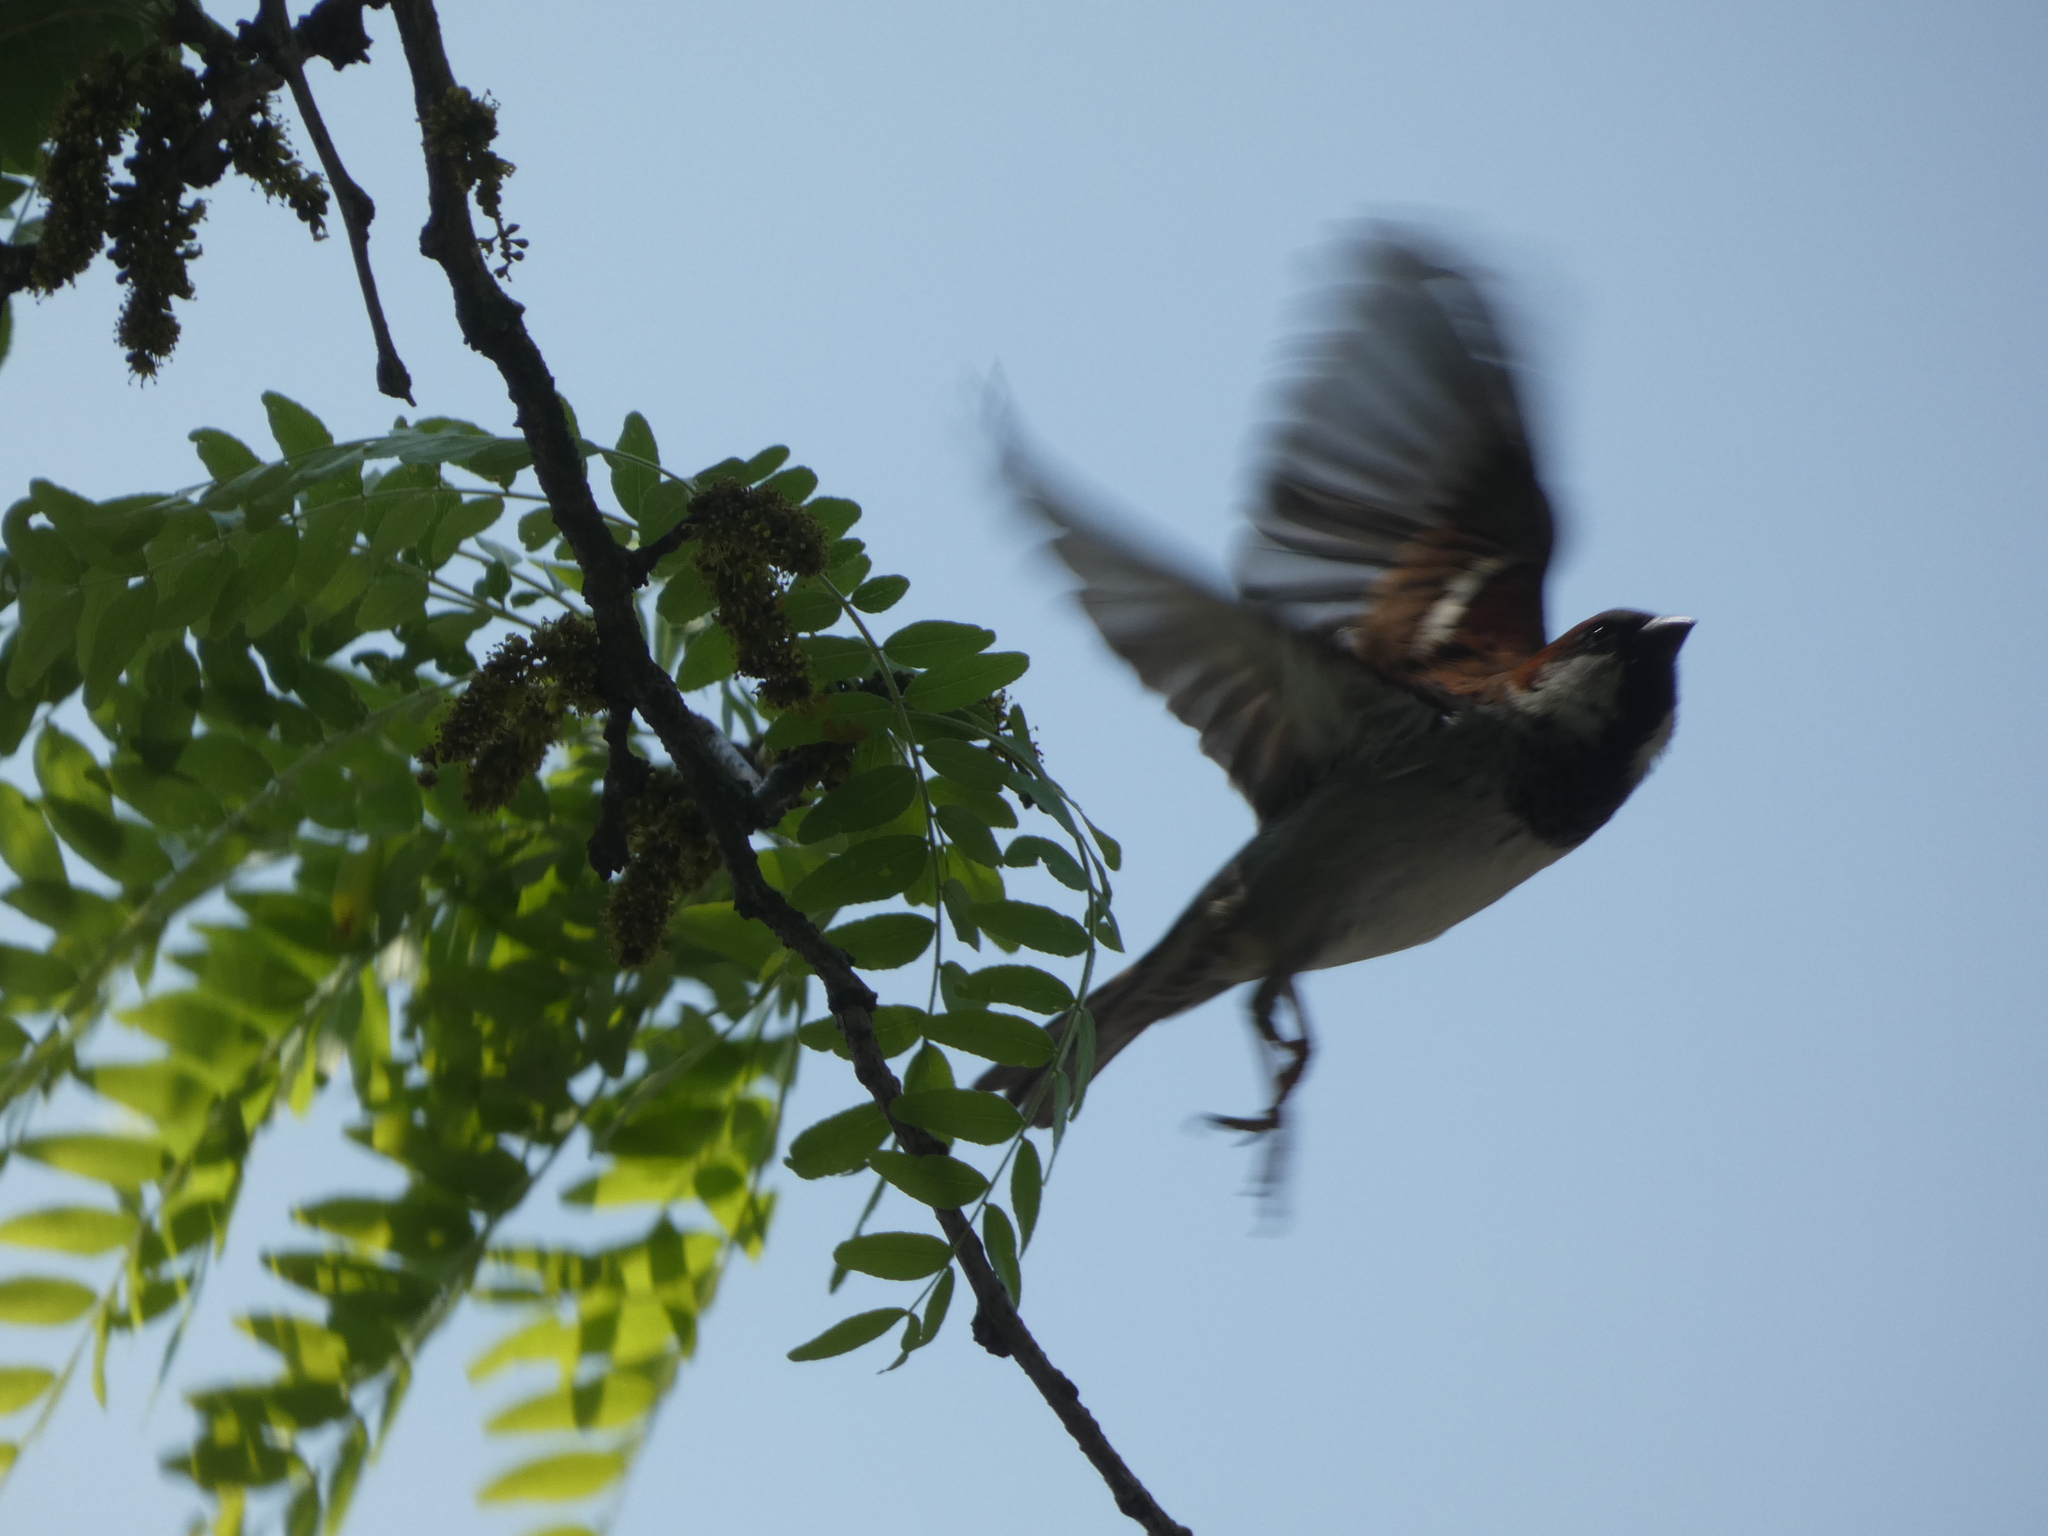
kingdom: Animalia
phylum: Chordata
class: Aves
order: Passeriformes
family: Passeridae
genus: Passer
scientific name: Passer domesticus
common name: House sparrow
